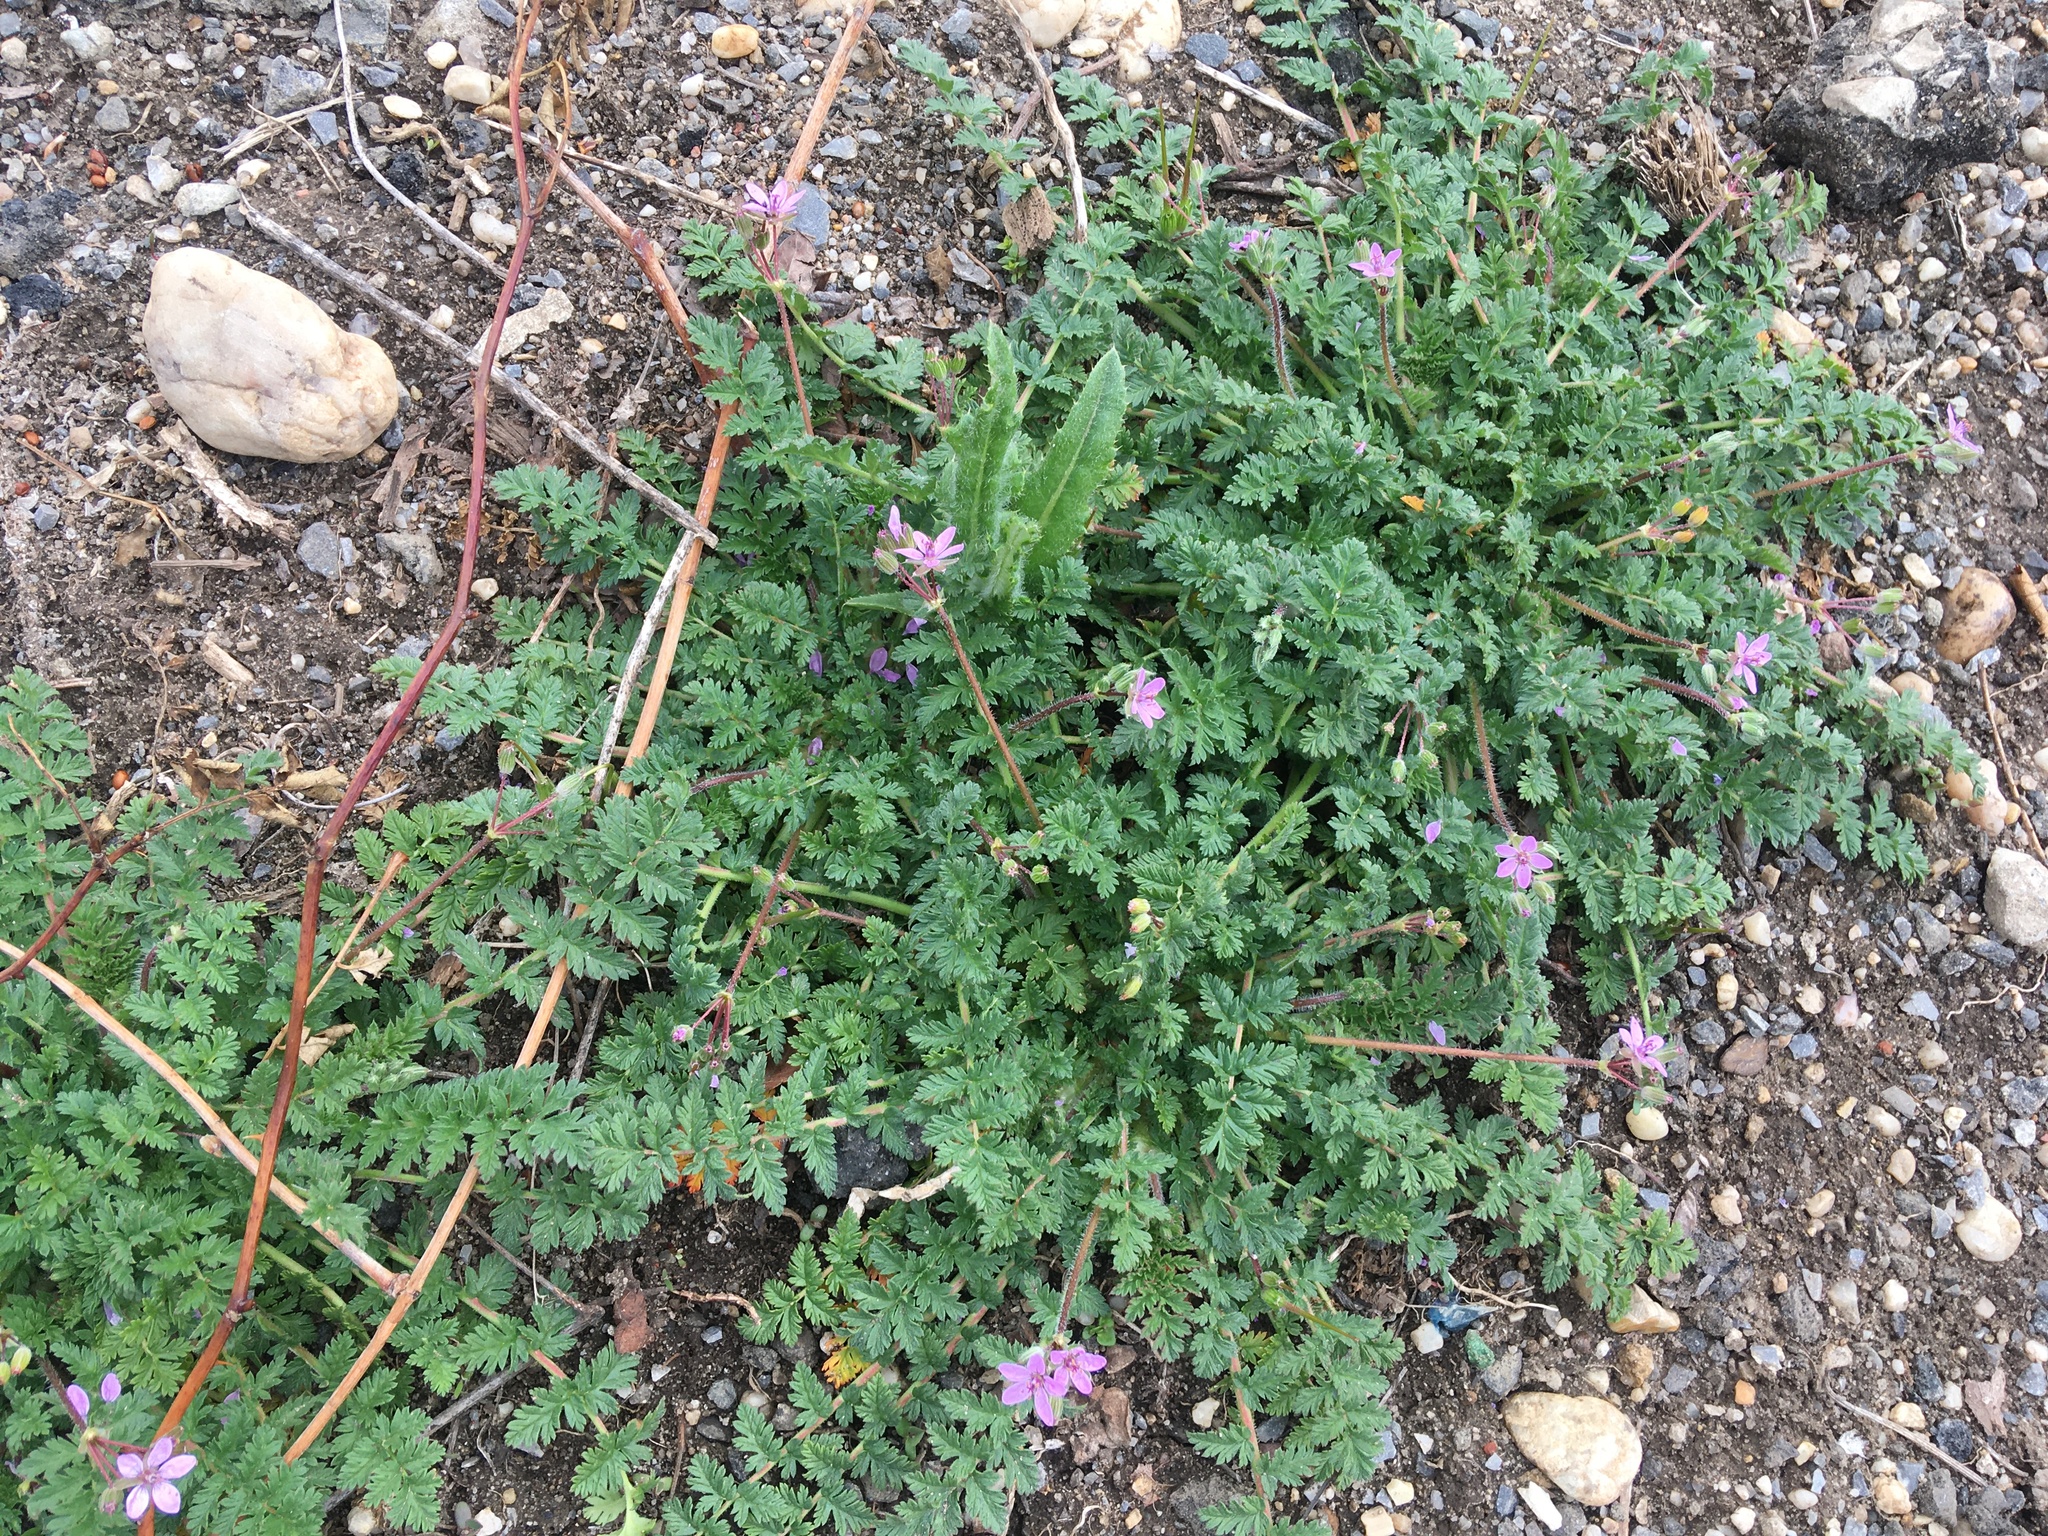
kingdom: Plantae
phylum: Tracheophyta
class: Magnoliopsida
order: Geraniales
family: Geraniaceae
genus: Erodium
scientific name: Erodium cicutarium
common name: Common stork's-bill
